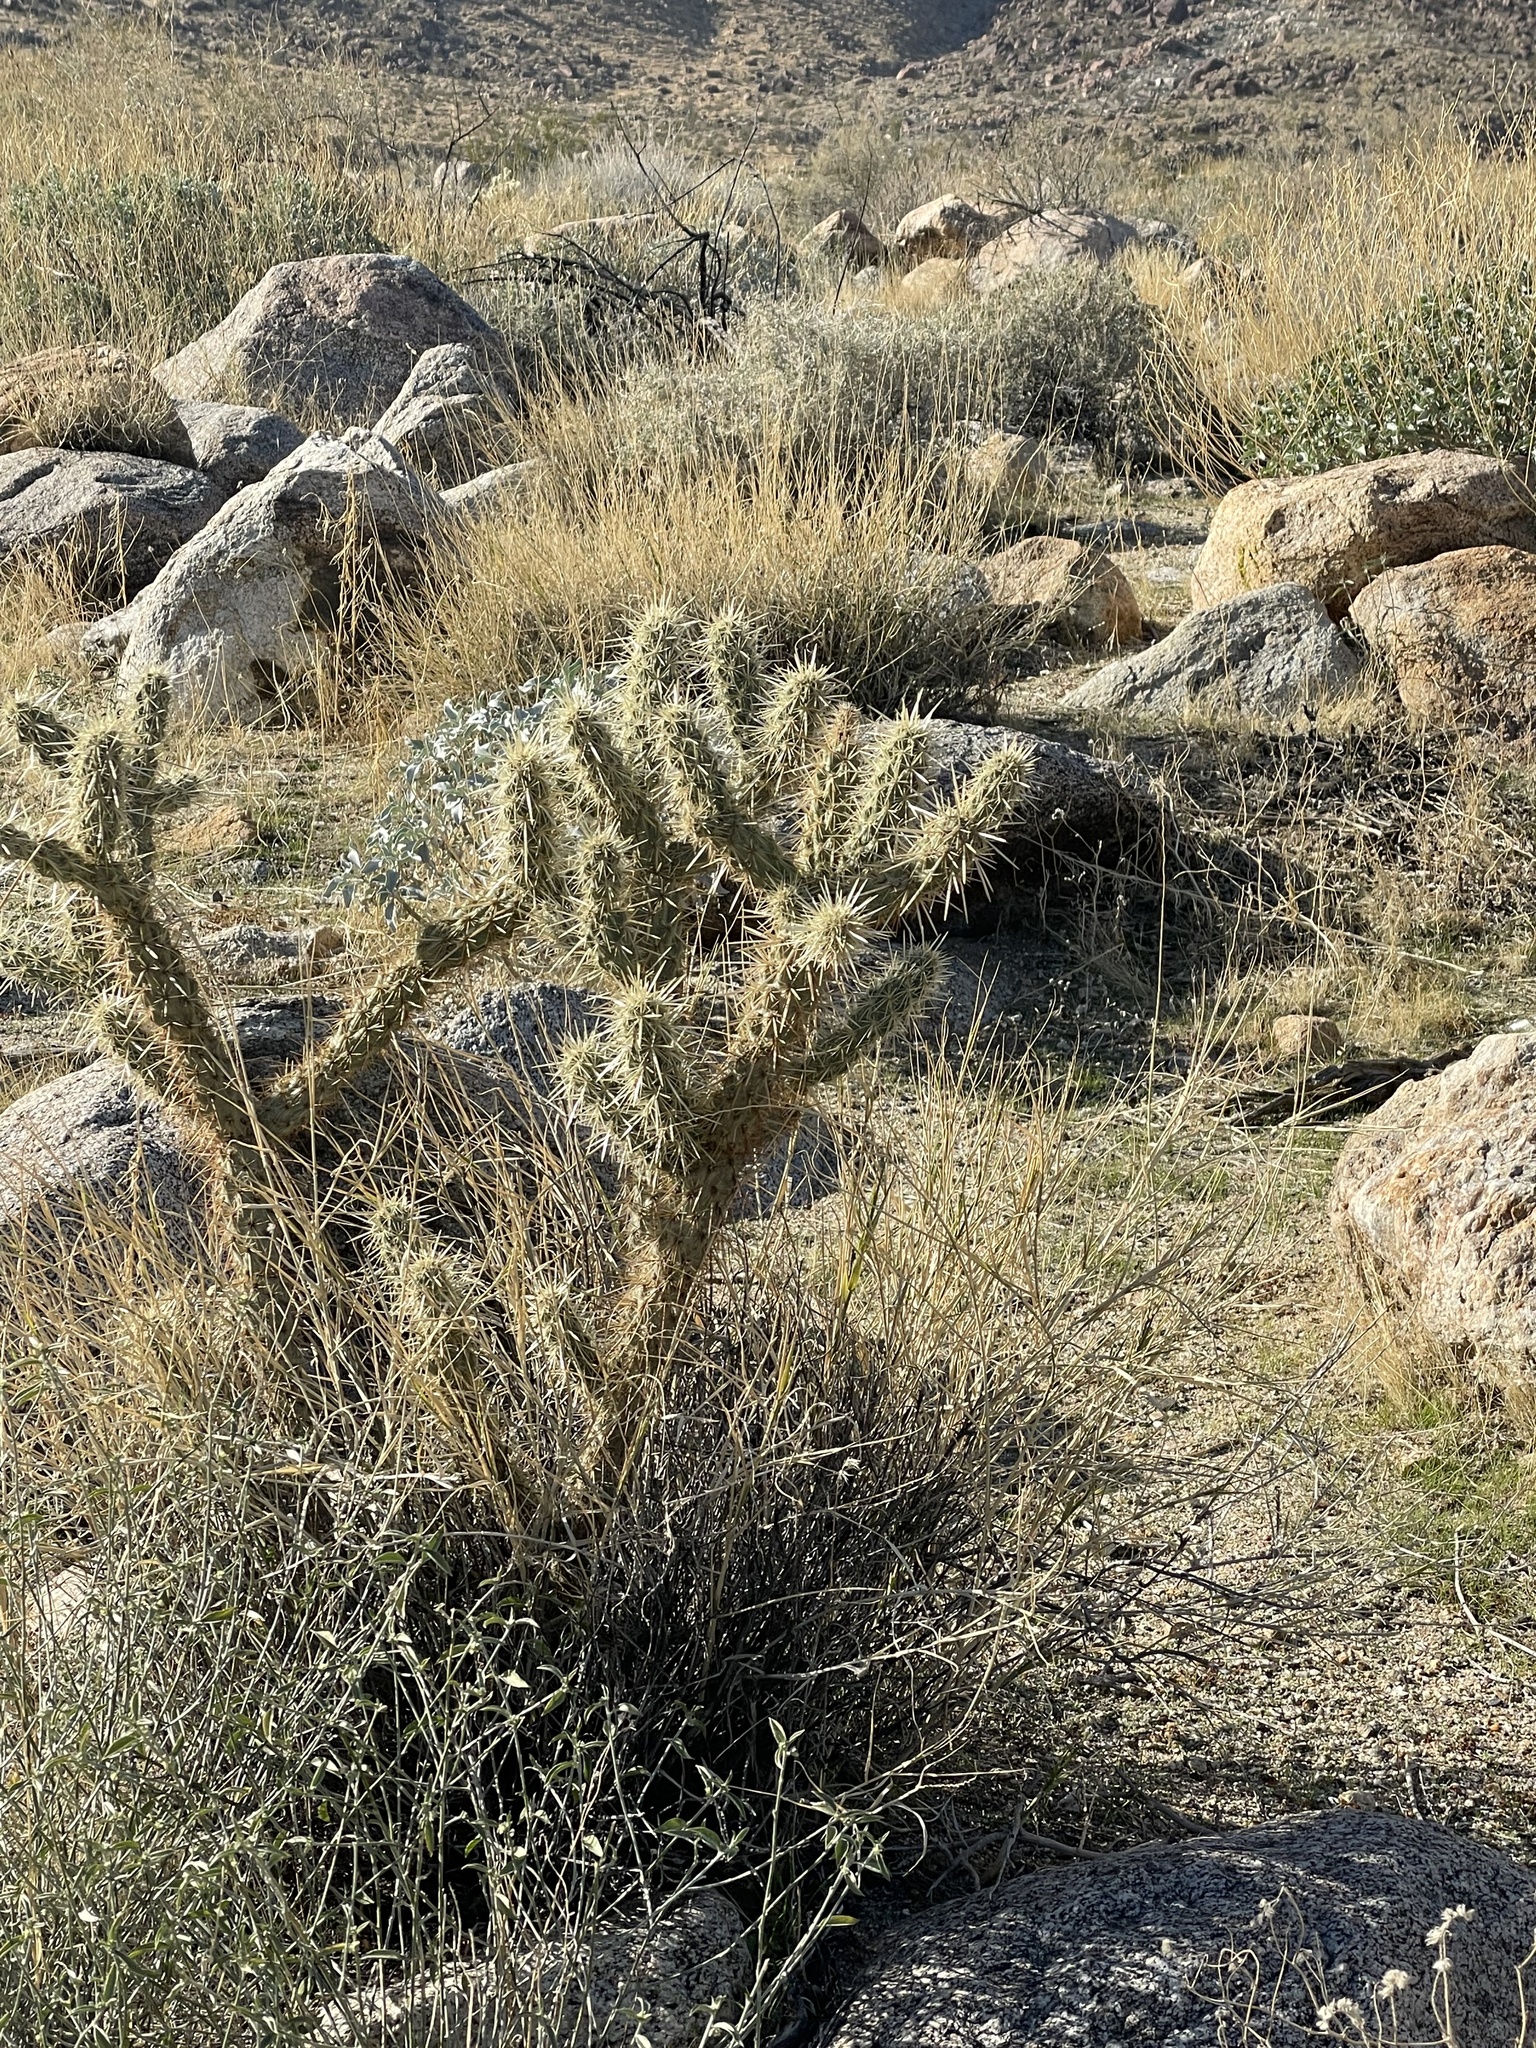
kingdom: Plantae
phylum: Tracheophyta
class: Magnoliopsida
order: Caryophyllales
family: Cactaceae
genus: Cylindropuntia
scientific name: Cylindropuntia ganderi
